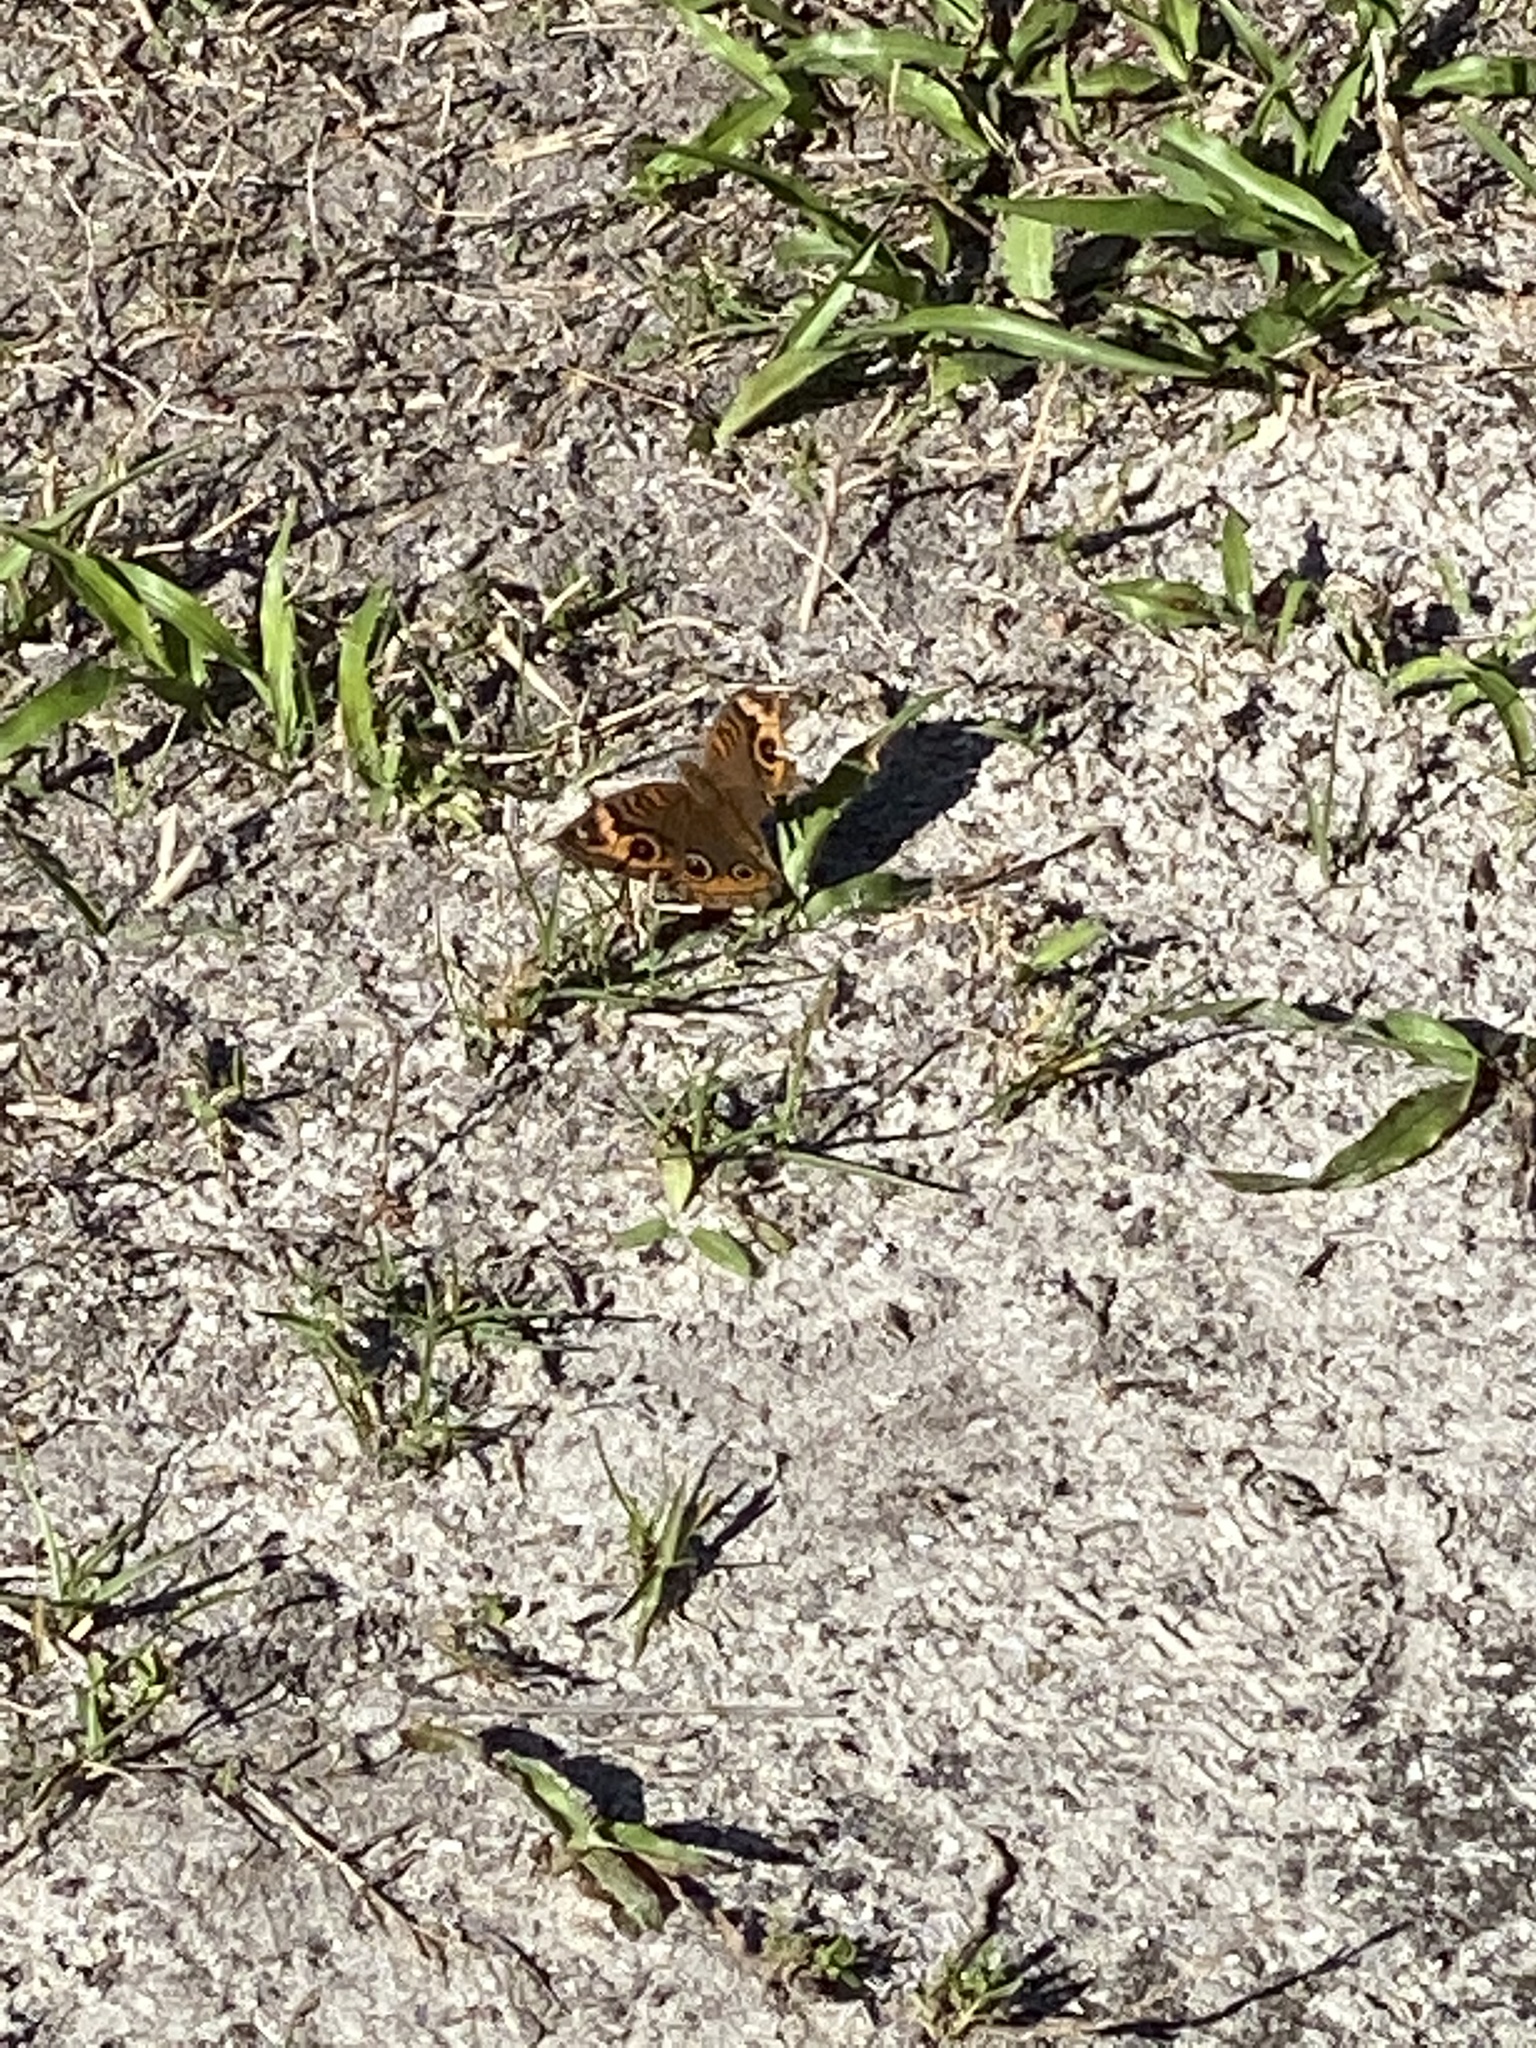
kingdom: Animalia
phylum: Arthropoda
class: Insecta
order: Lepidoptera
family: Nymphalidae
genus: Junonia
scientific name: Junonia neildi
